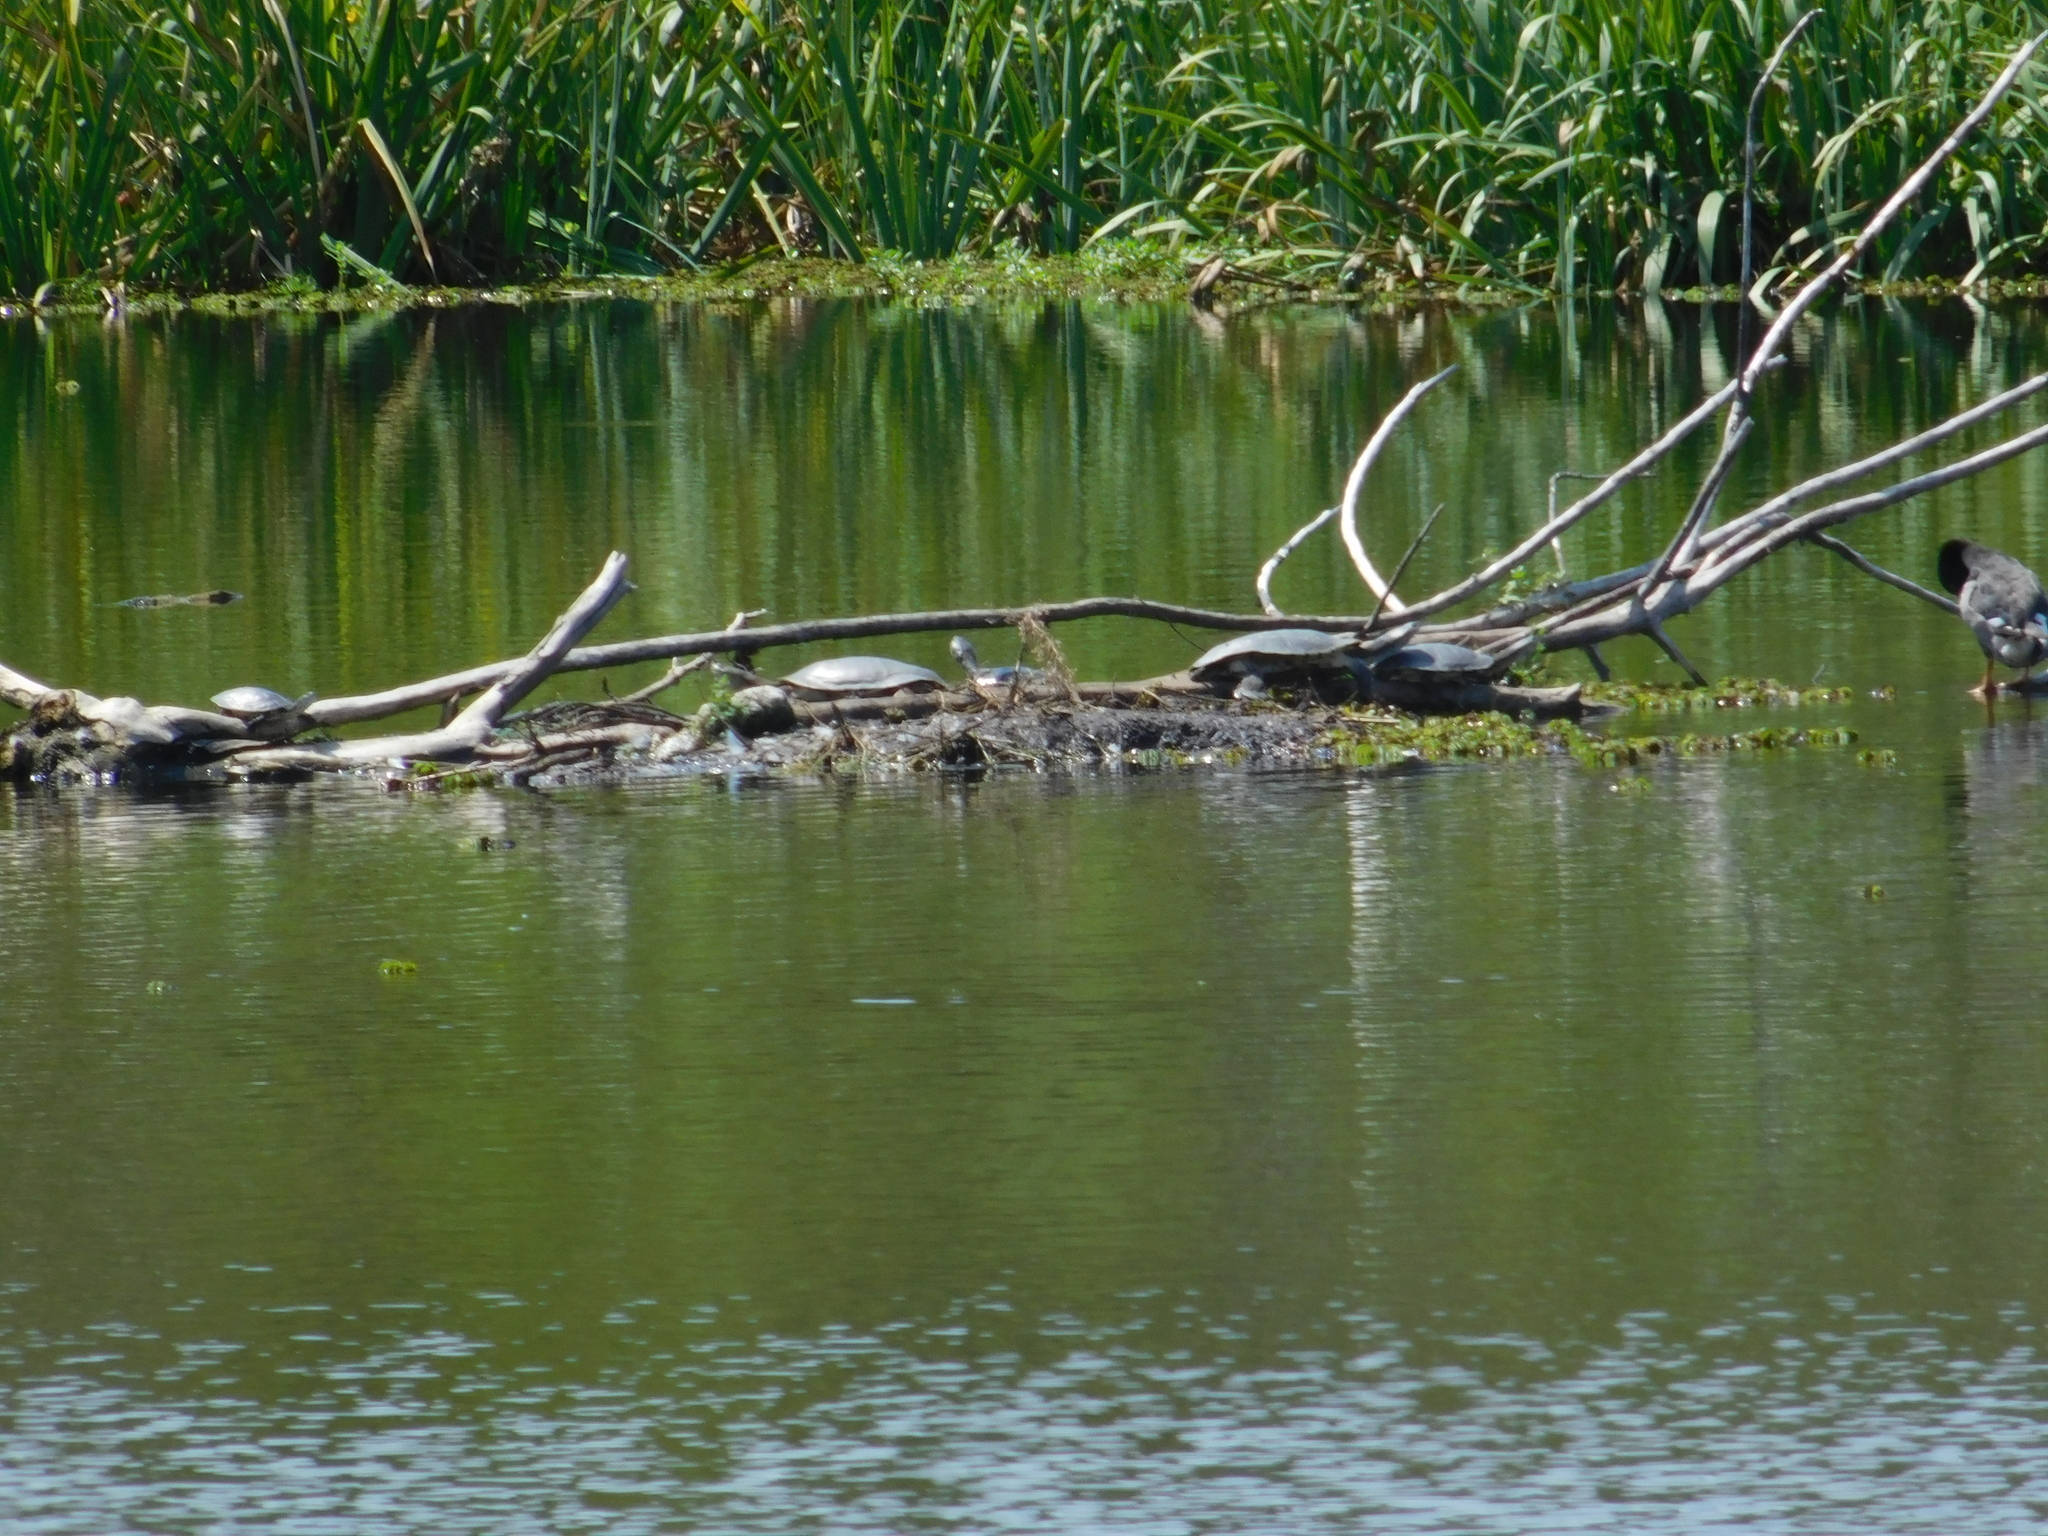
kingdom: Animalia
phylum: Chordata
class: Testudines
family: Chelidae
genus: Phrynops
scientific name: Phrynops hilarii
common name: Side-necked turtle of saint hillaire
